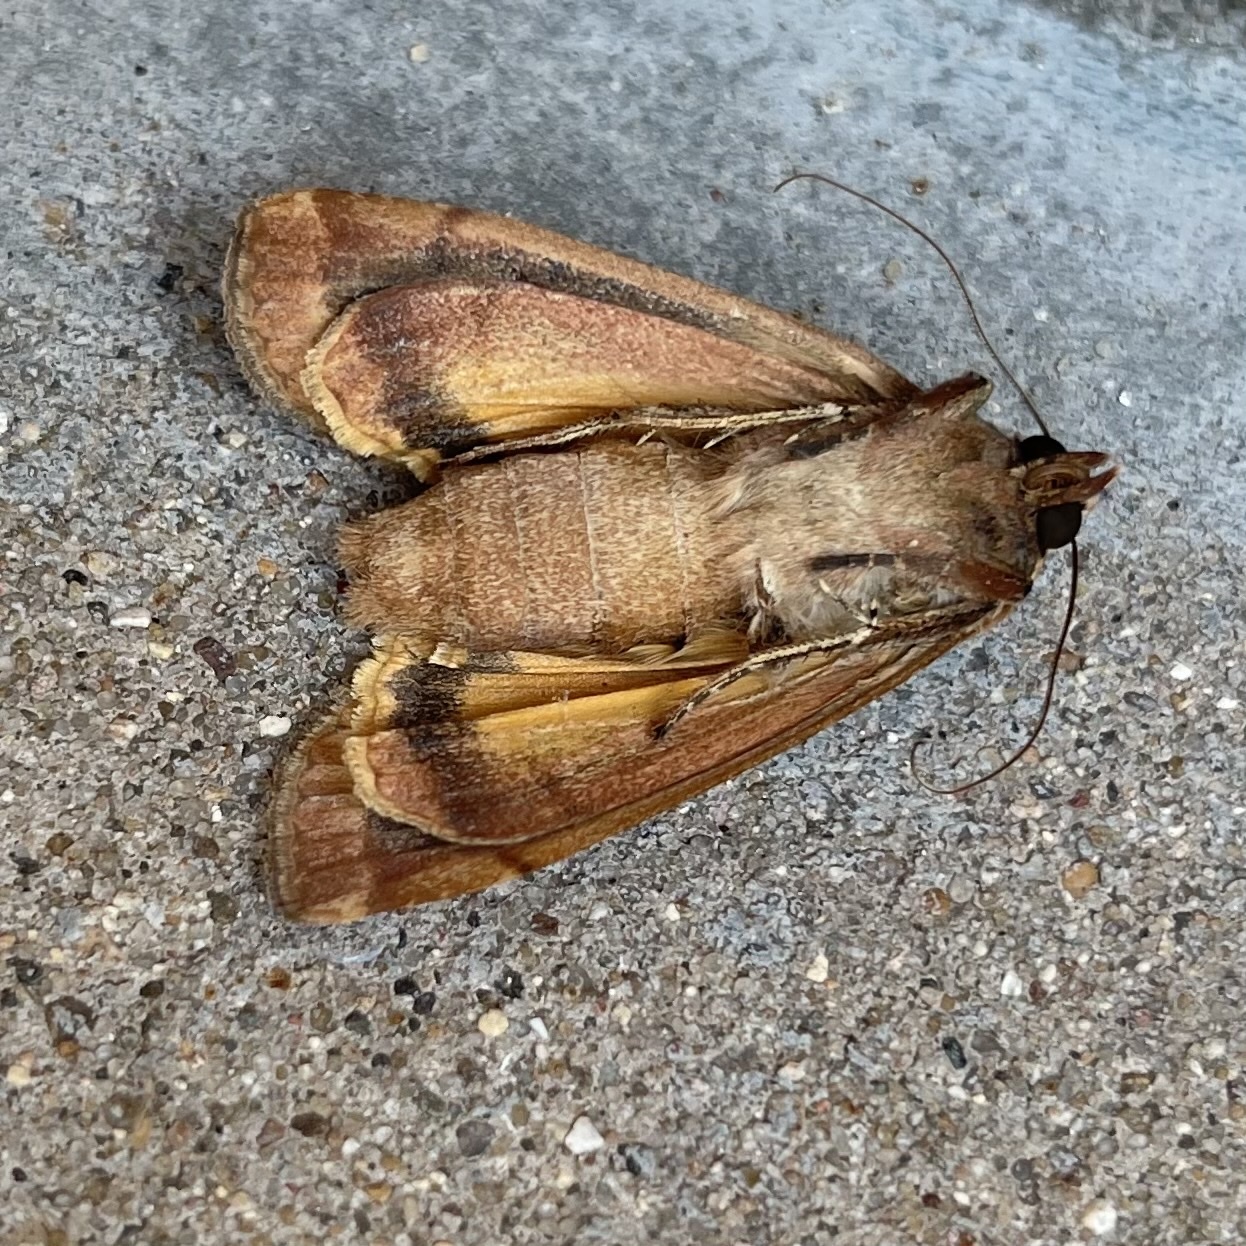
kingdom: Animalia
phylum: Arthropoda
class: Insecta
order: Lepidoptera
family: Noctuidae
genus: Noctua
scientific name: Noctua pronuba
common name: Large yellow underwing
